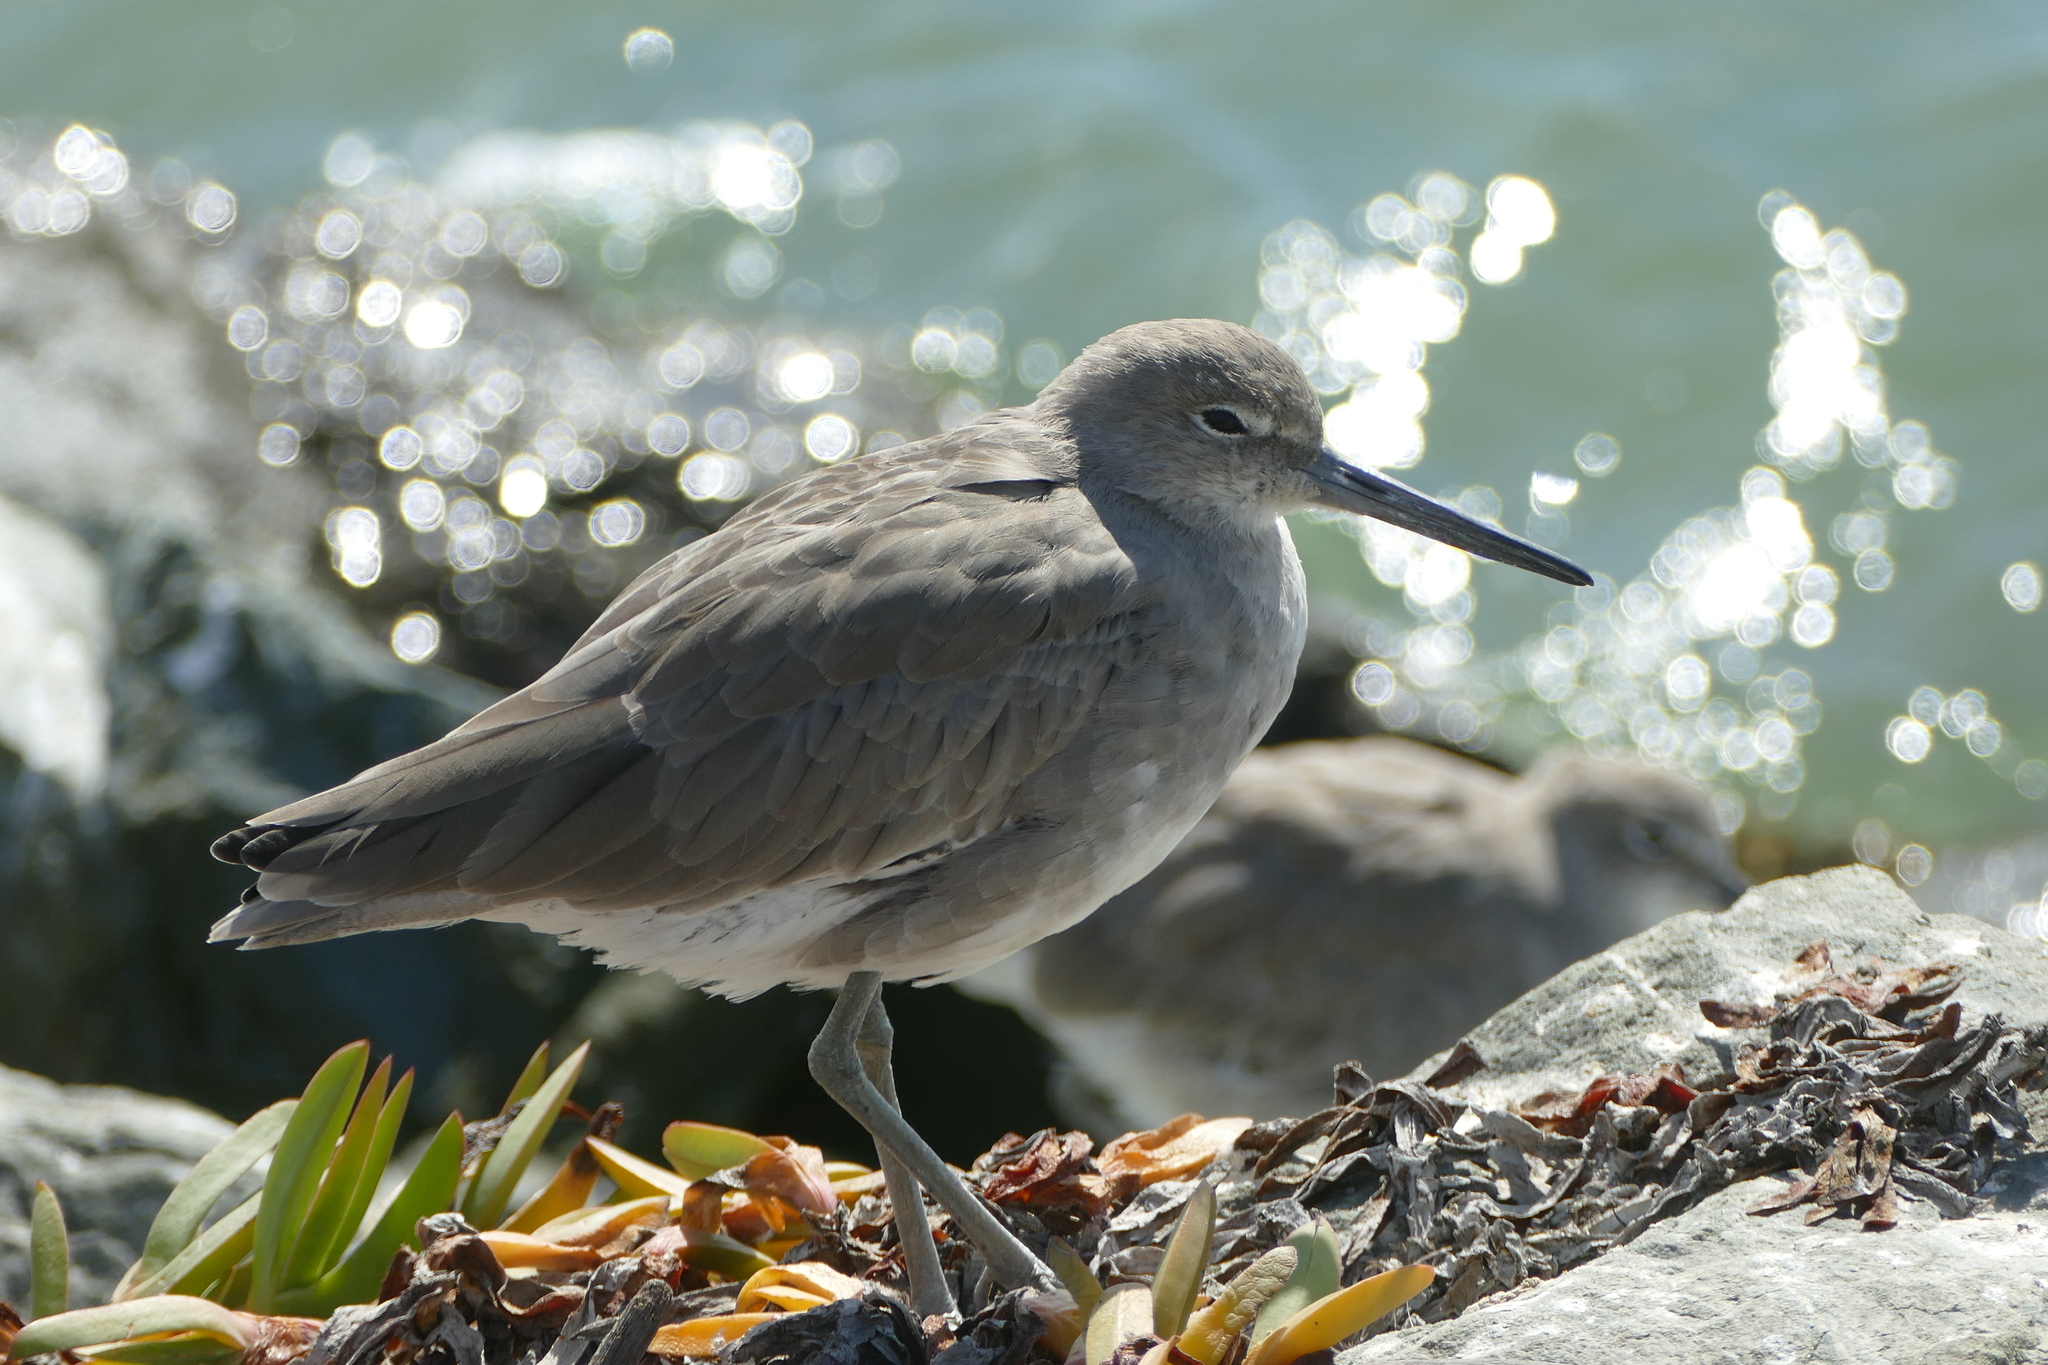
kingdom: Animalia
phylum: Chordata
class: Aves
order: Charadriiformes
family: Scolopacidae
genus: Tringa
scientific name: Tringa semipalmata
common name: Willet
